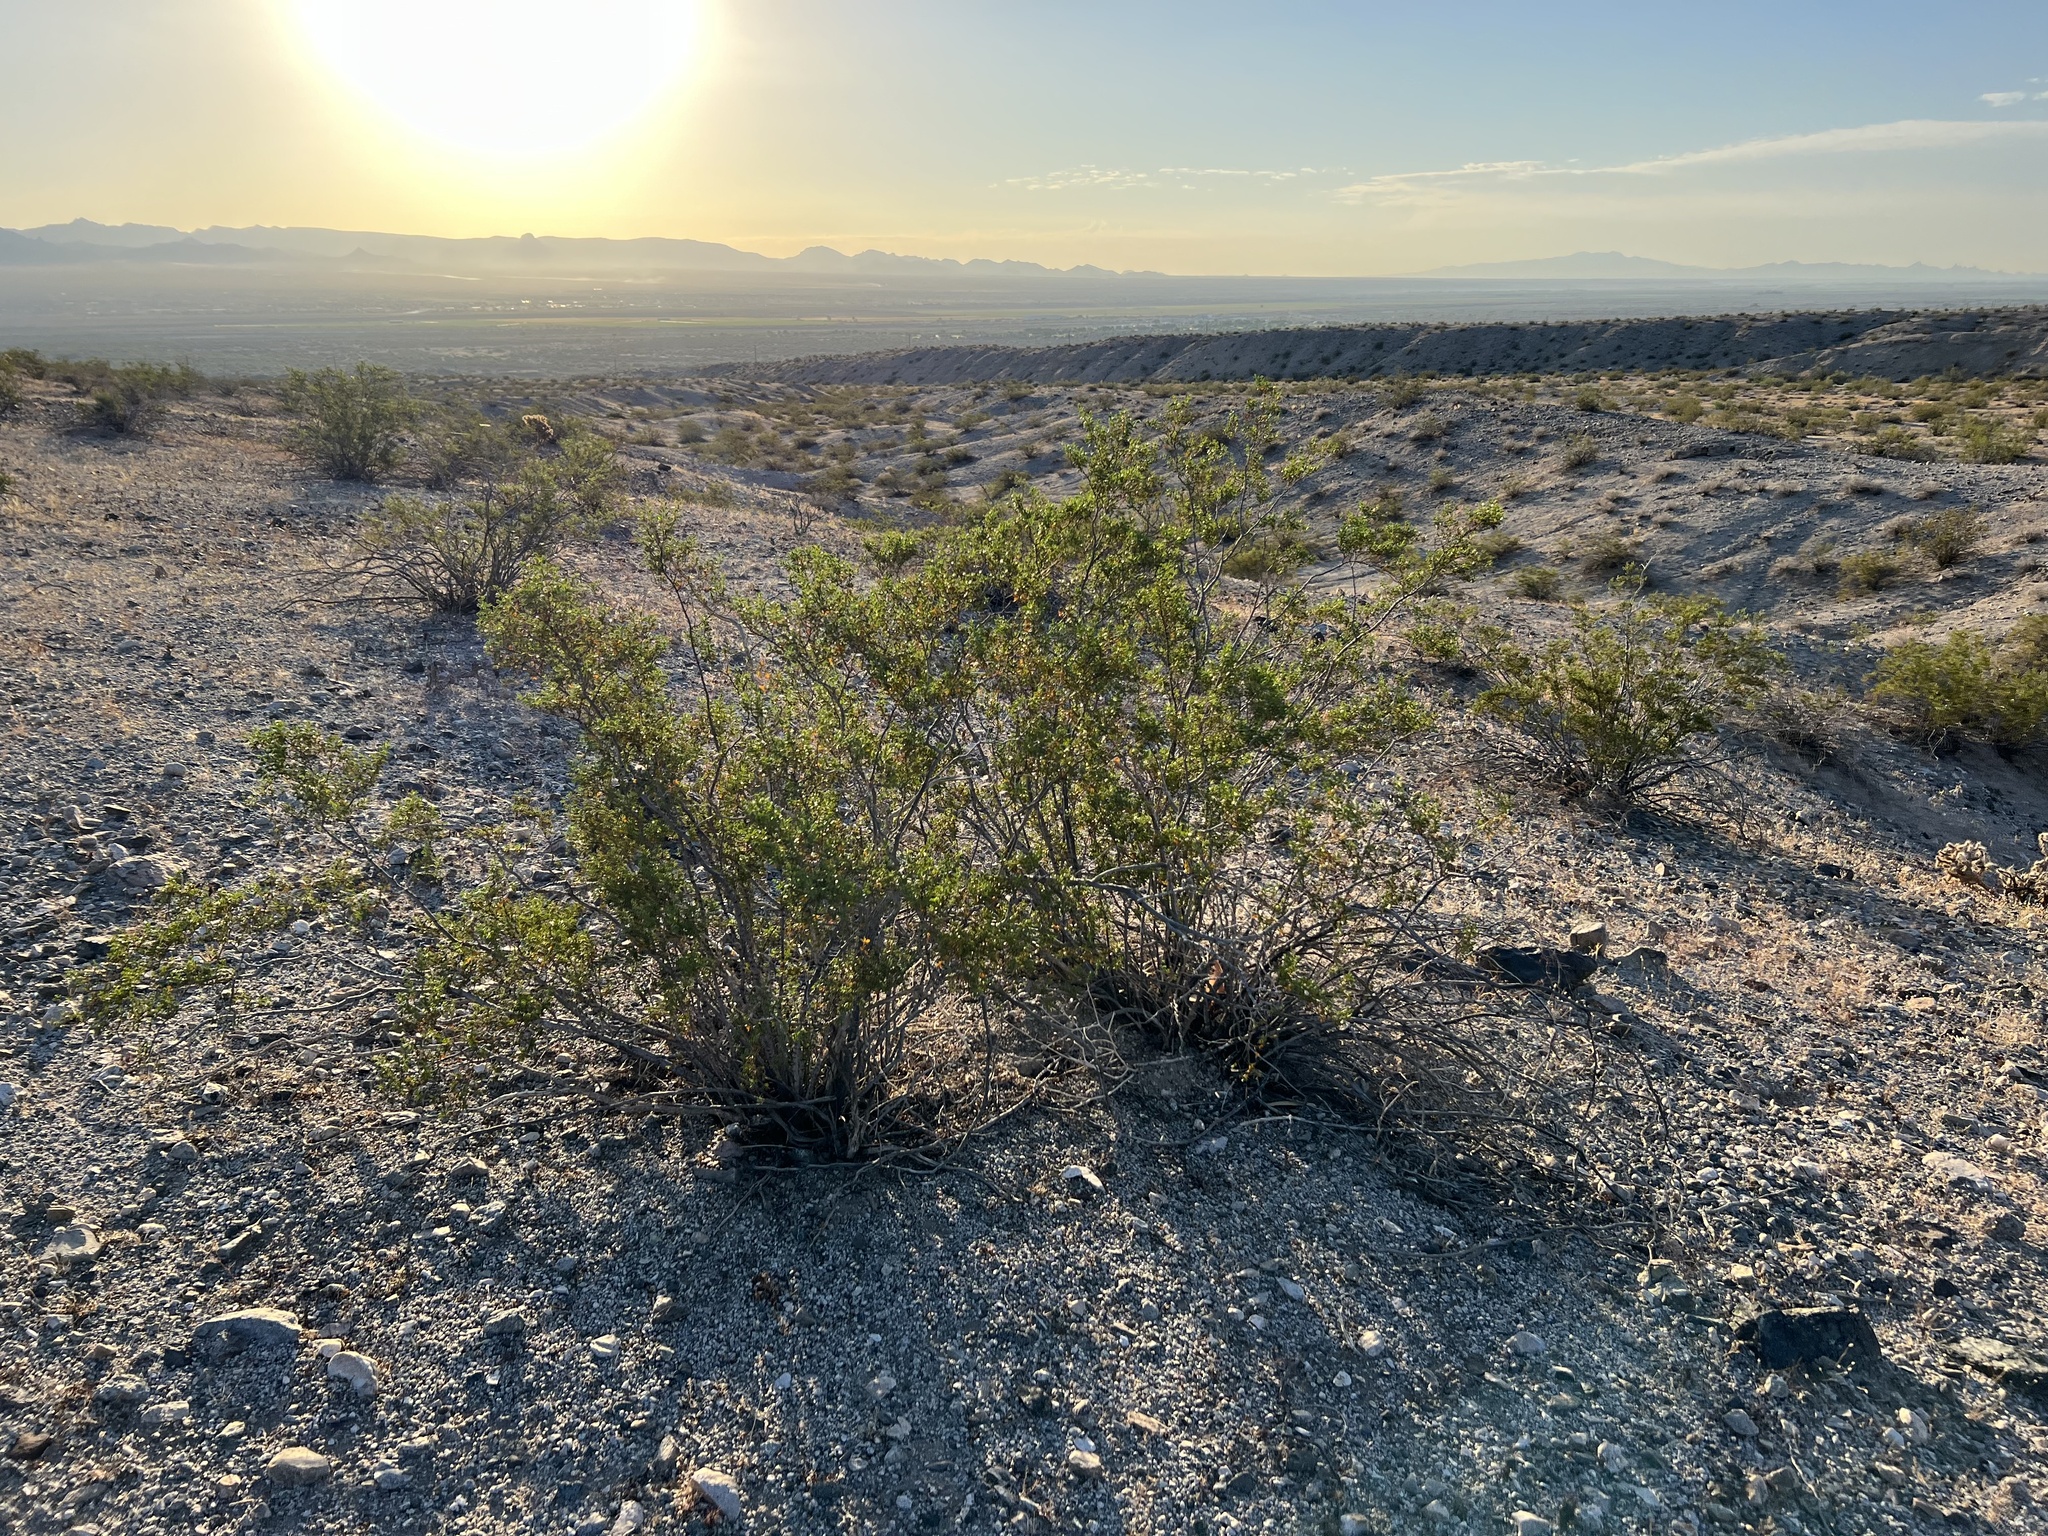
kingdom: Plantae
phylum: Tracheophyta
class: Magnoliopsida
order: Zygophyllales
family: Zygophyllaceae
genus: Larrea
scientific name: Larrea tridentata
